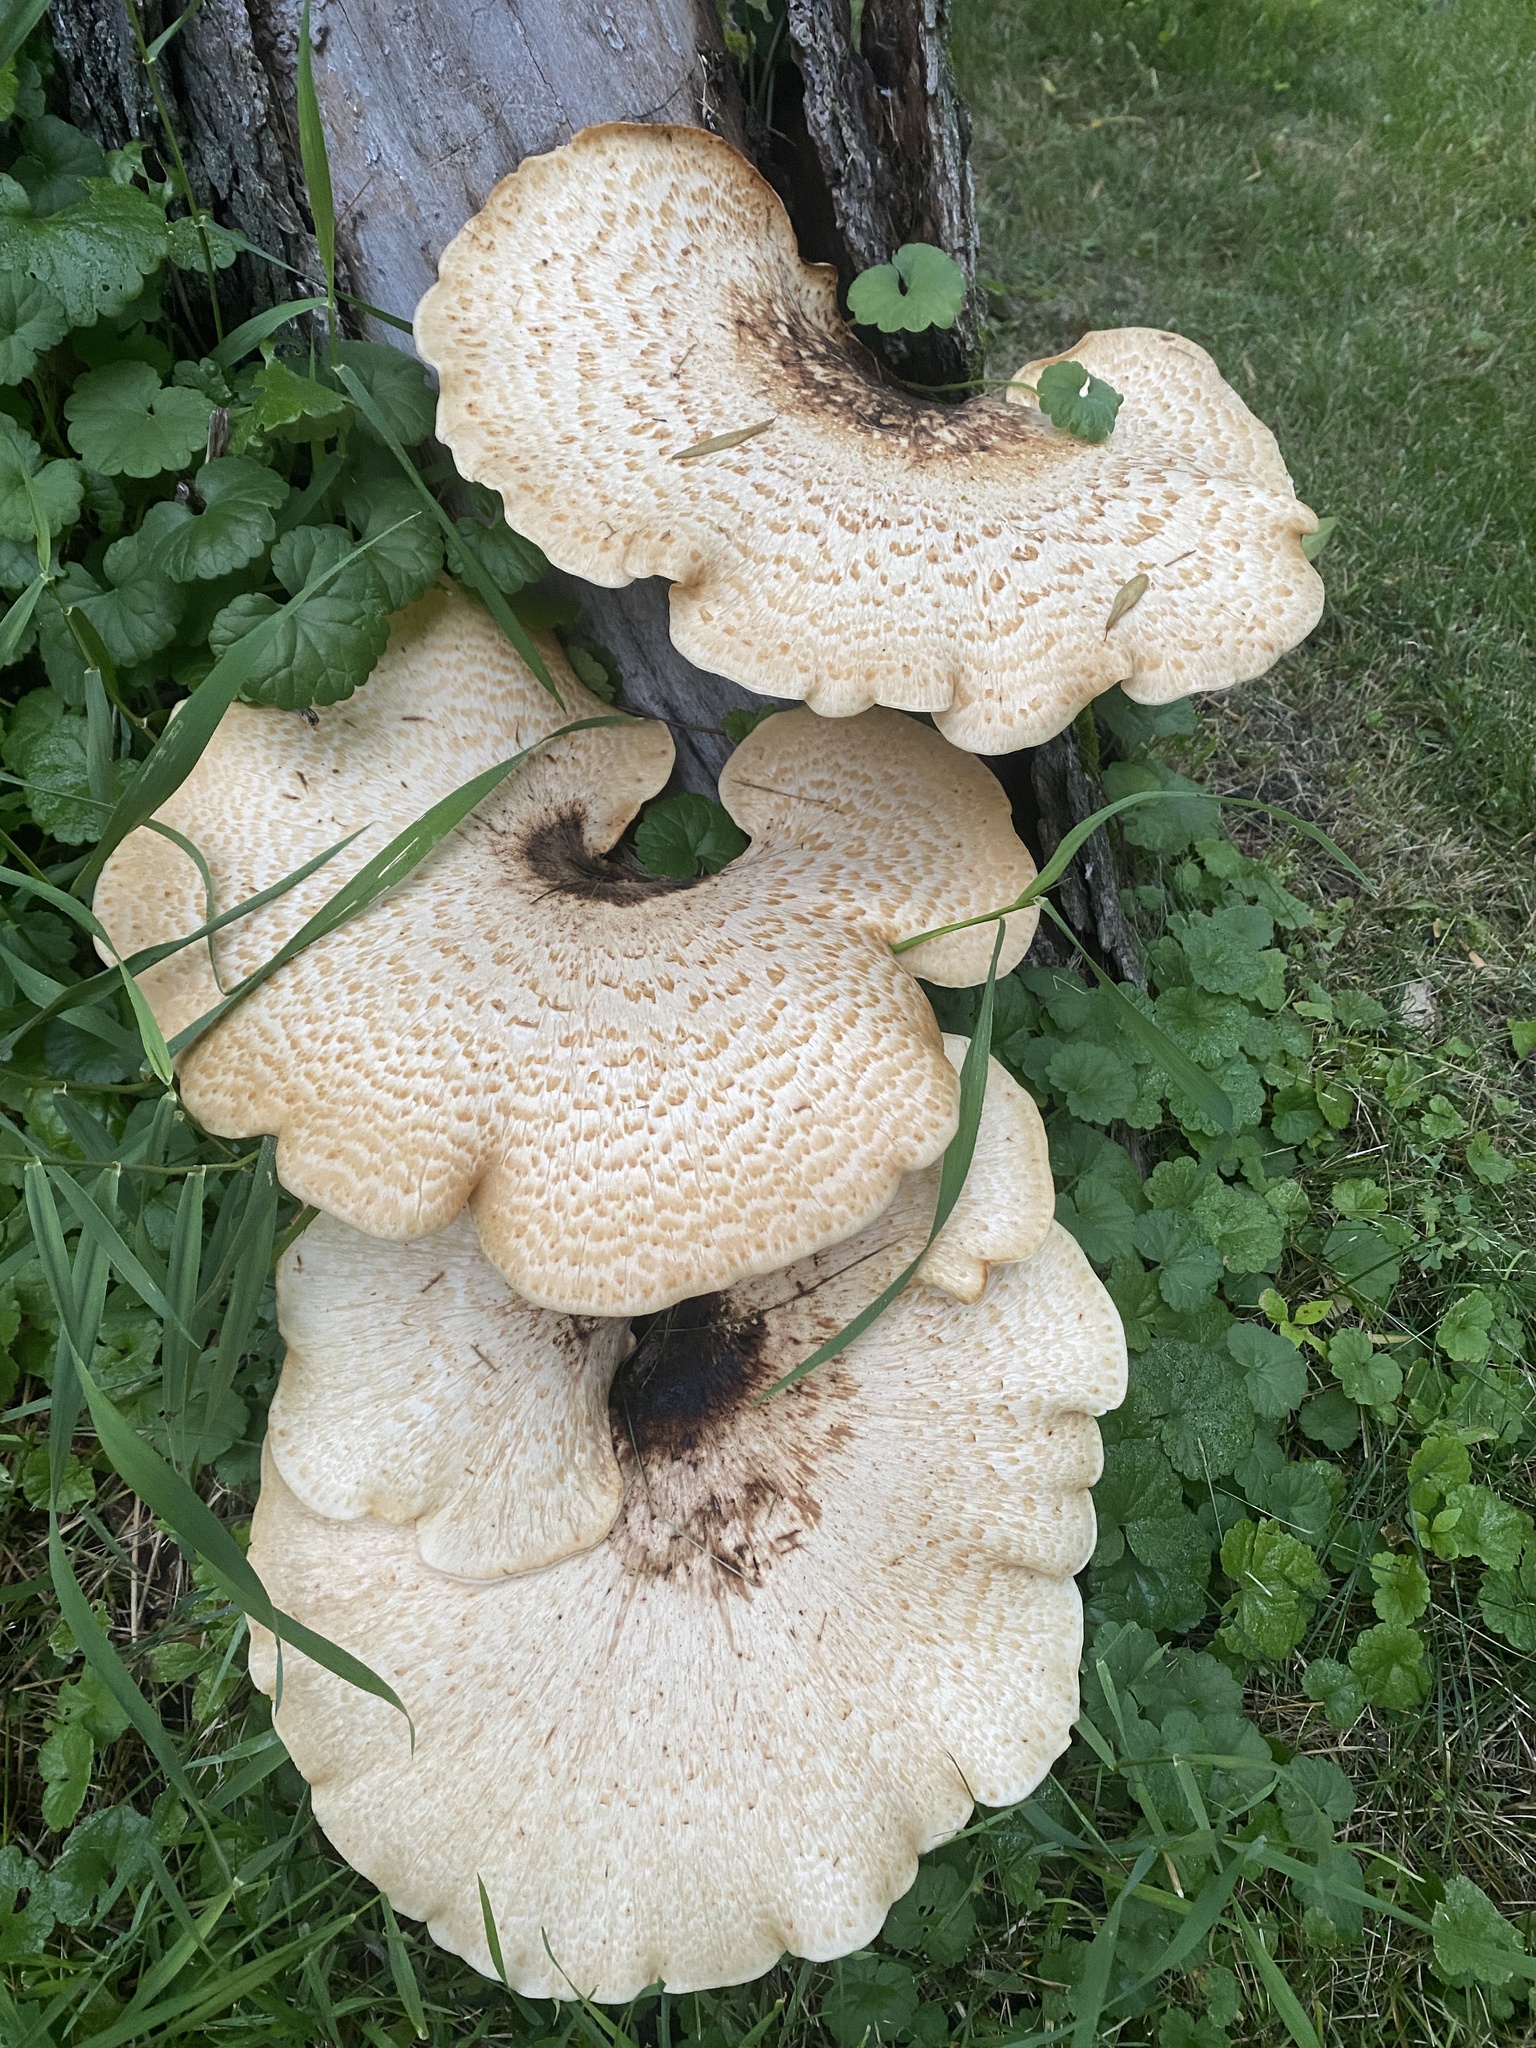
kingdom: Fungi
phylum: Basidiomycota
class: Agaricomycetes
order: Polyporales
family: Polyporaceae
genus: Cerioporus
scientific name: Cerioporus squamosus
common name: Dryad's saddle
